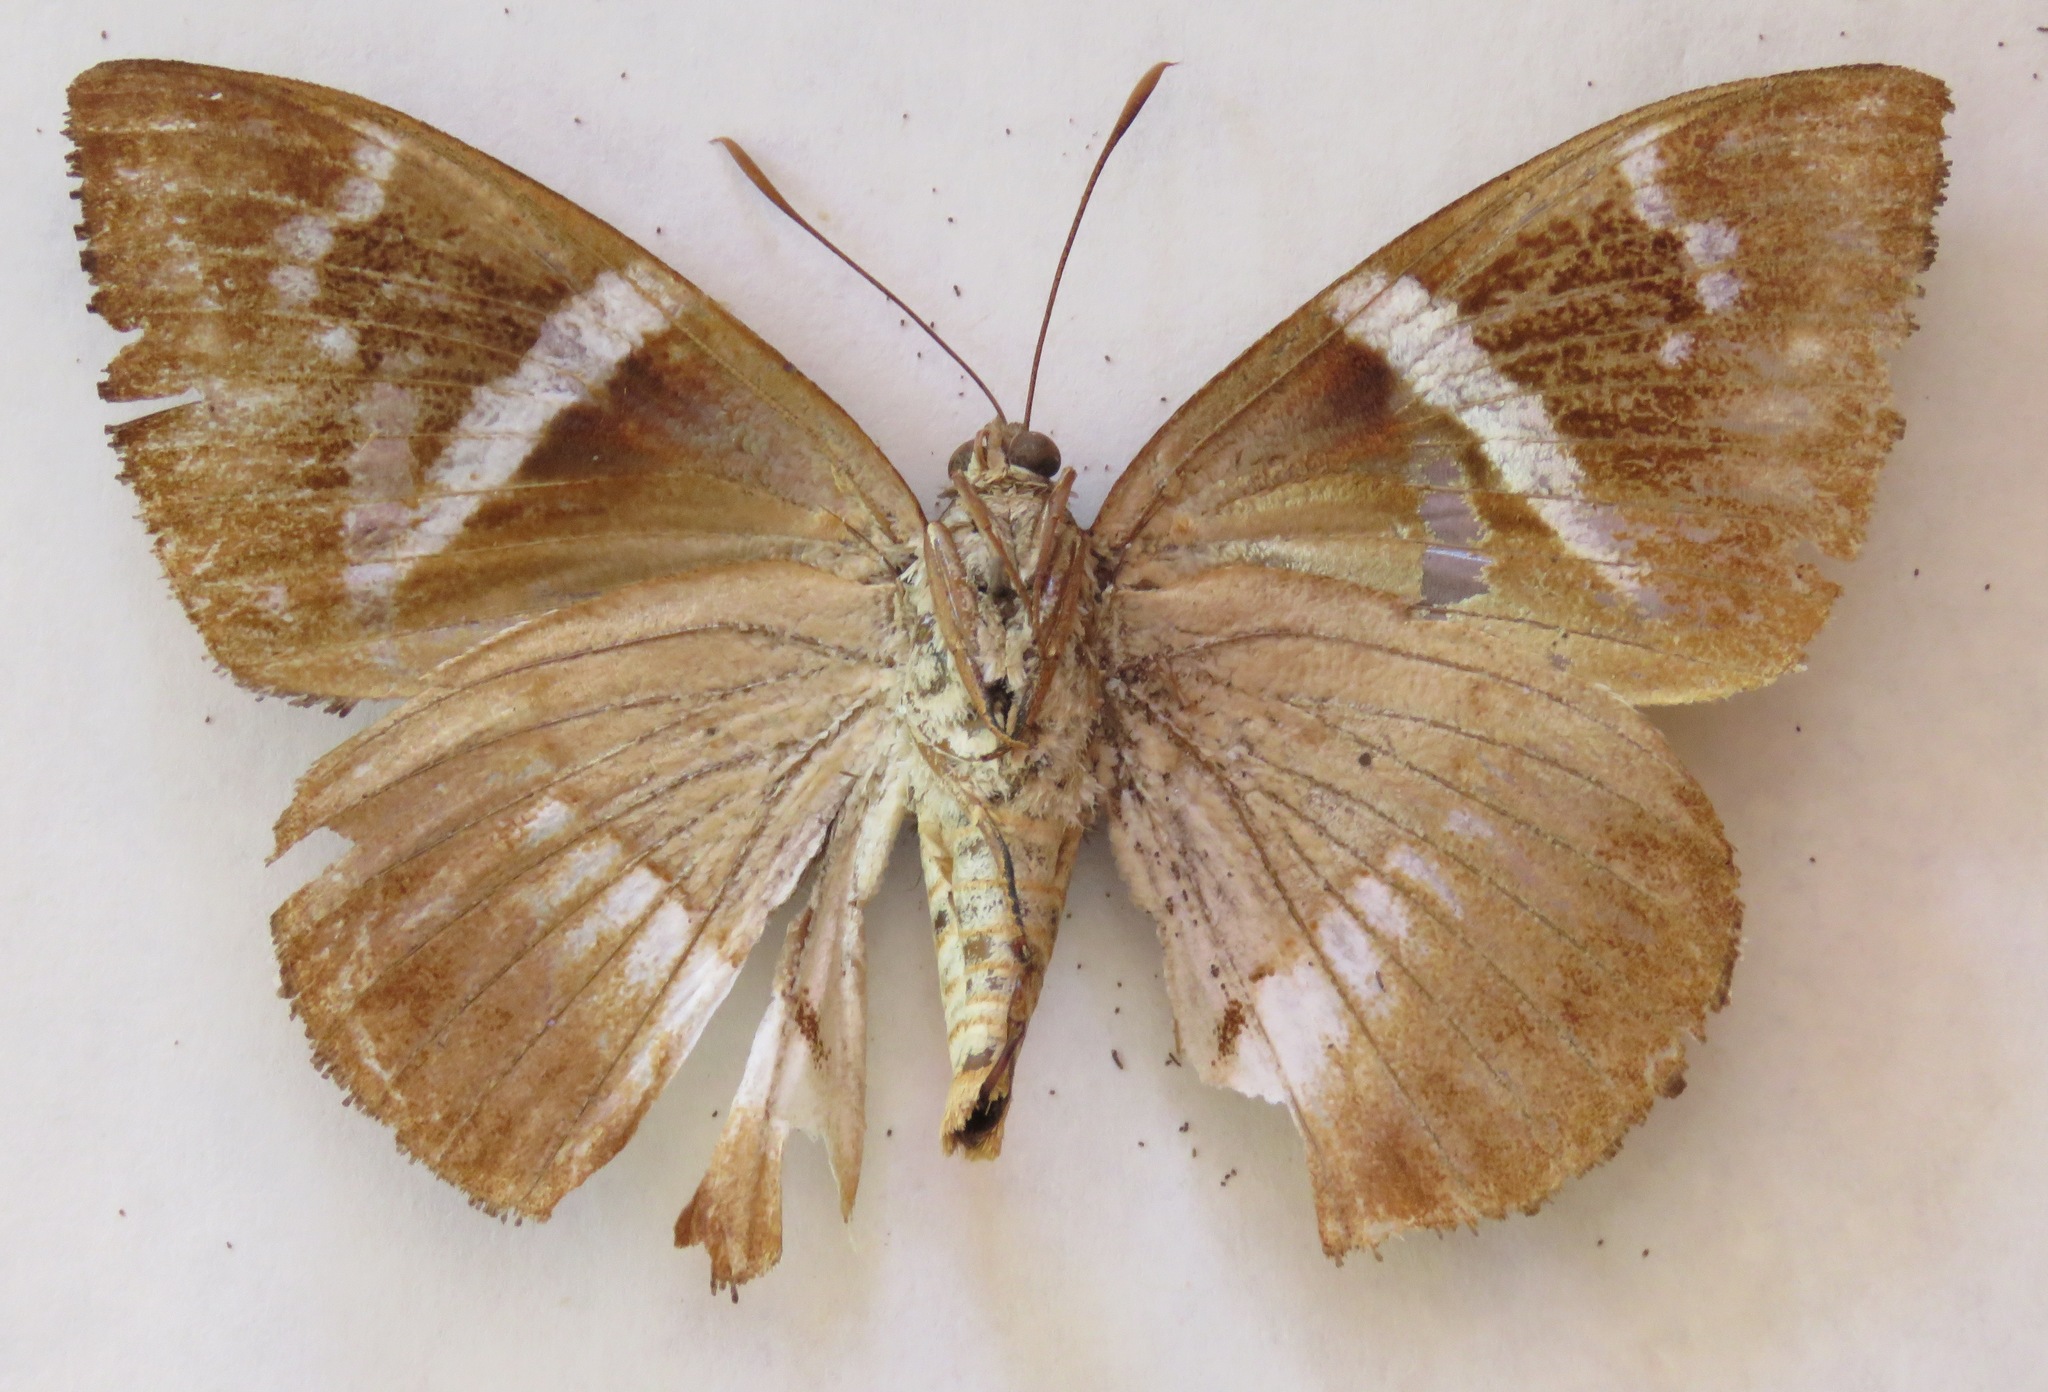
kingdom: Animalia
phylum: Arthropoda
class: Insecta
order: Lepidoptera
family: Castniidae
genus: Castniomera
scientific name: Castniomera atymnius
